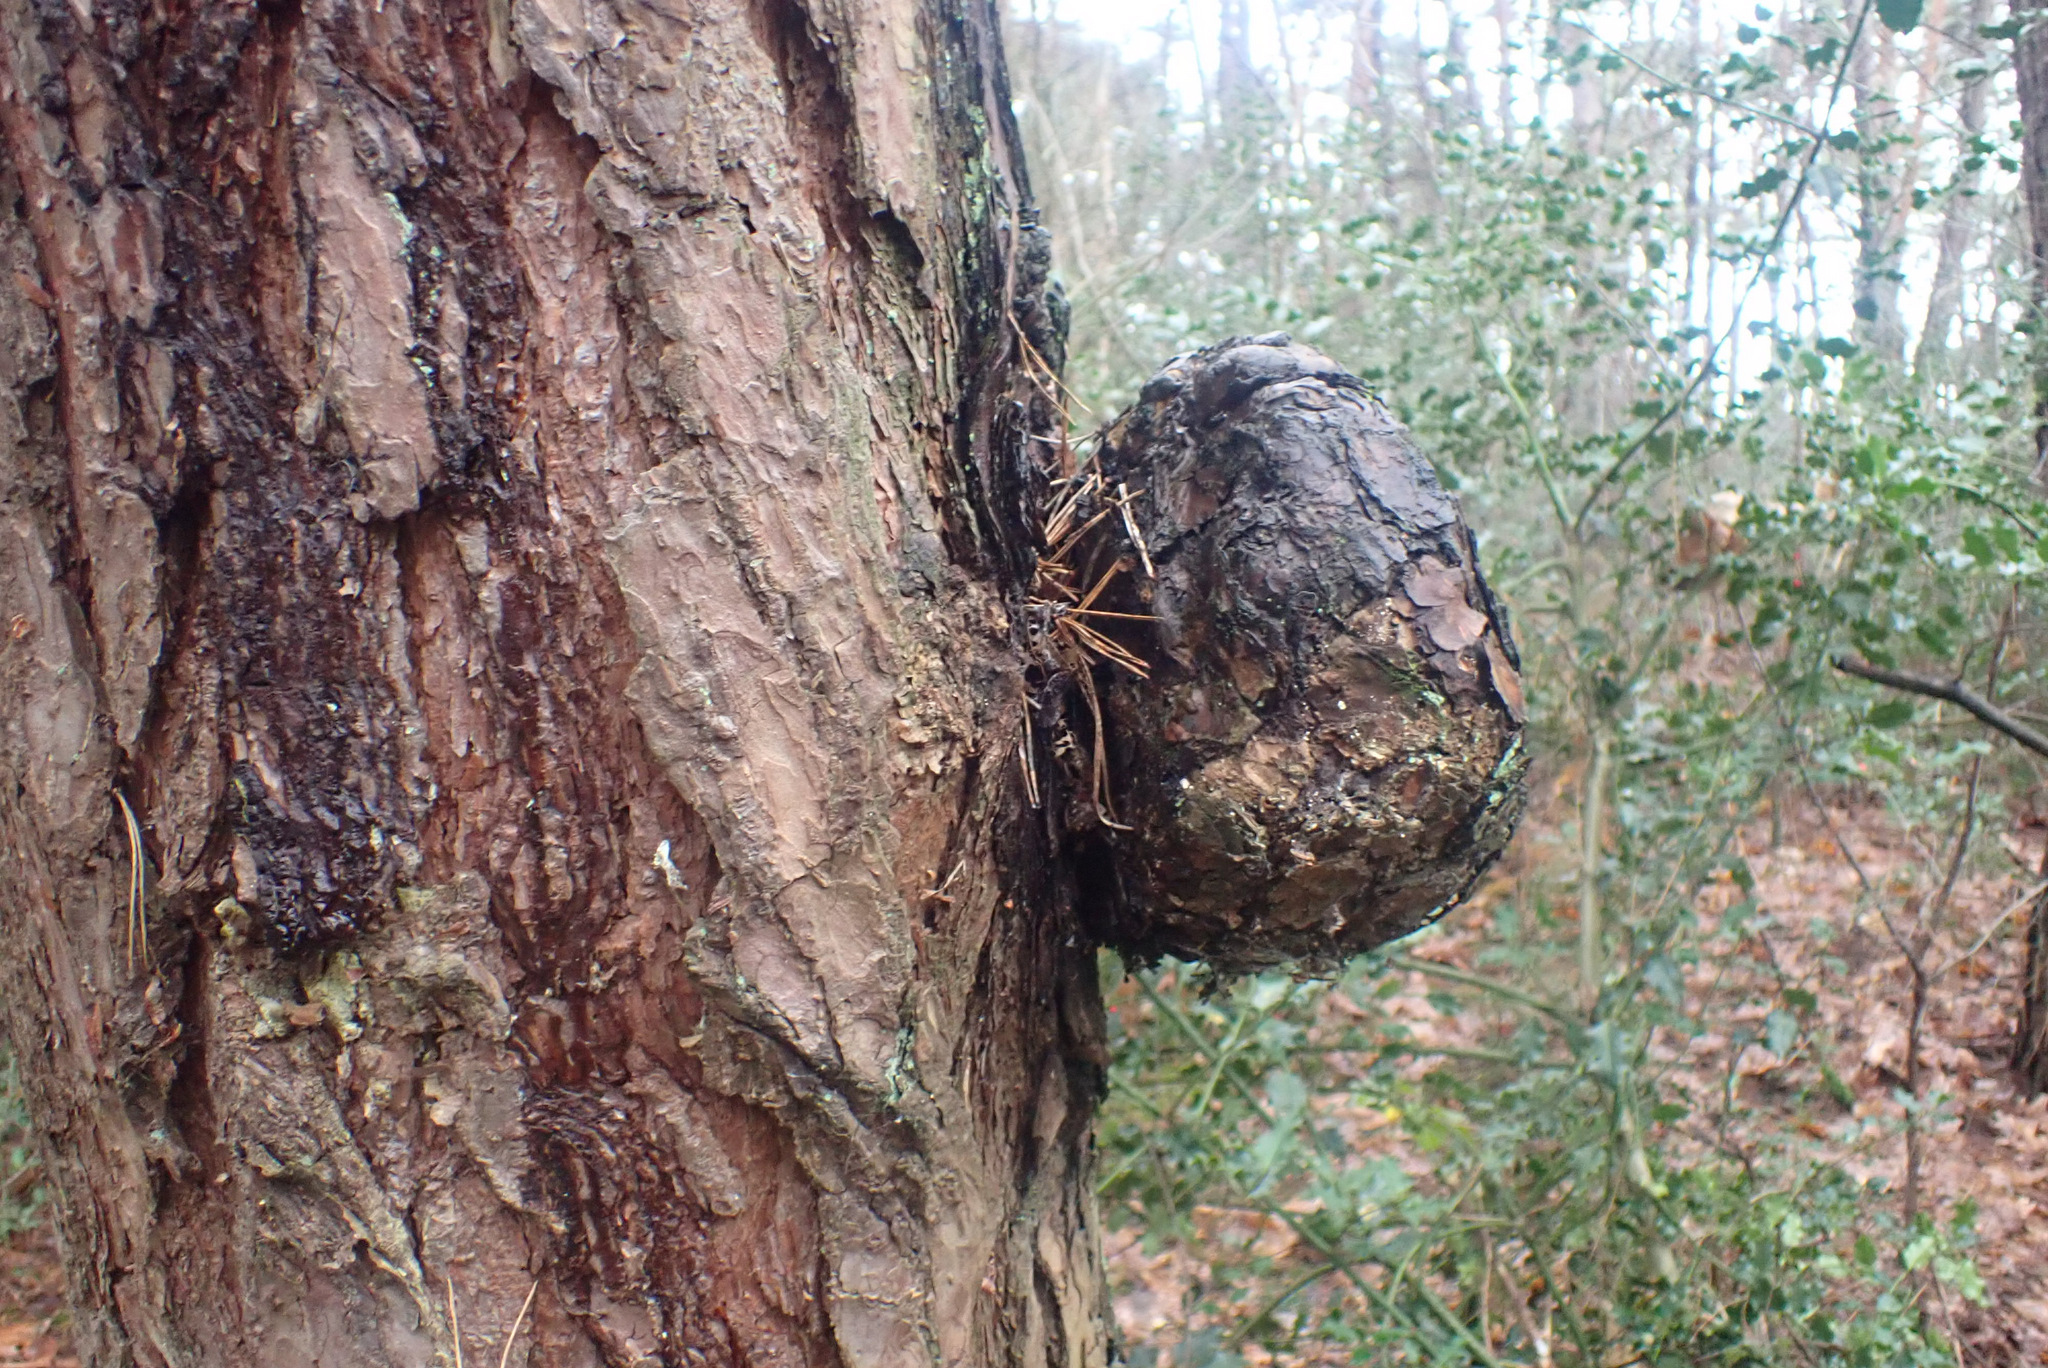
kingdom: Bacteria
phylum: Proteobacteria
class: Alphaproteobacteria
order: Rhizobiales
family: Rhizobiaceae
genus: Rhizobium
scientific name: Rhizobium Agrobacterium radiobacter
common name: Bacterial crown gall
